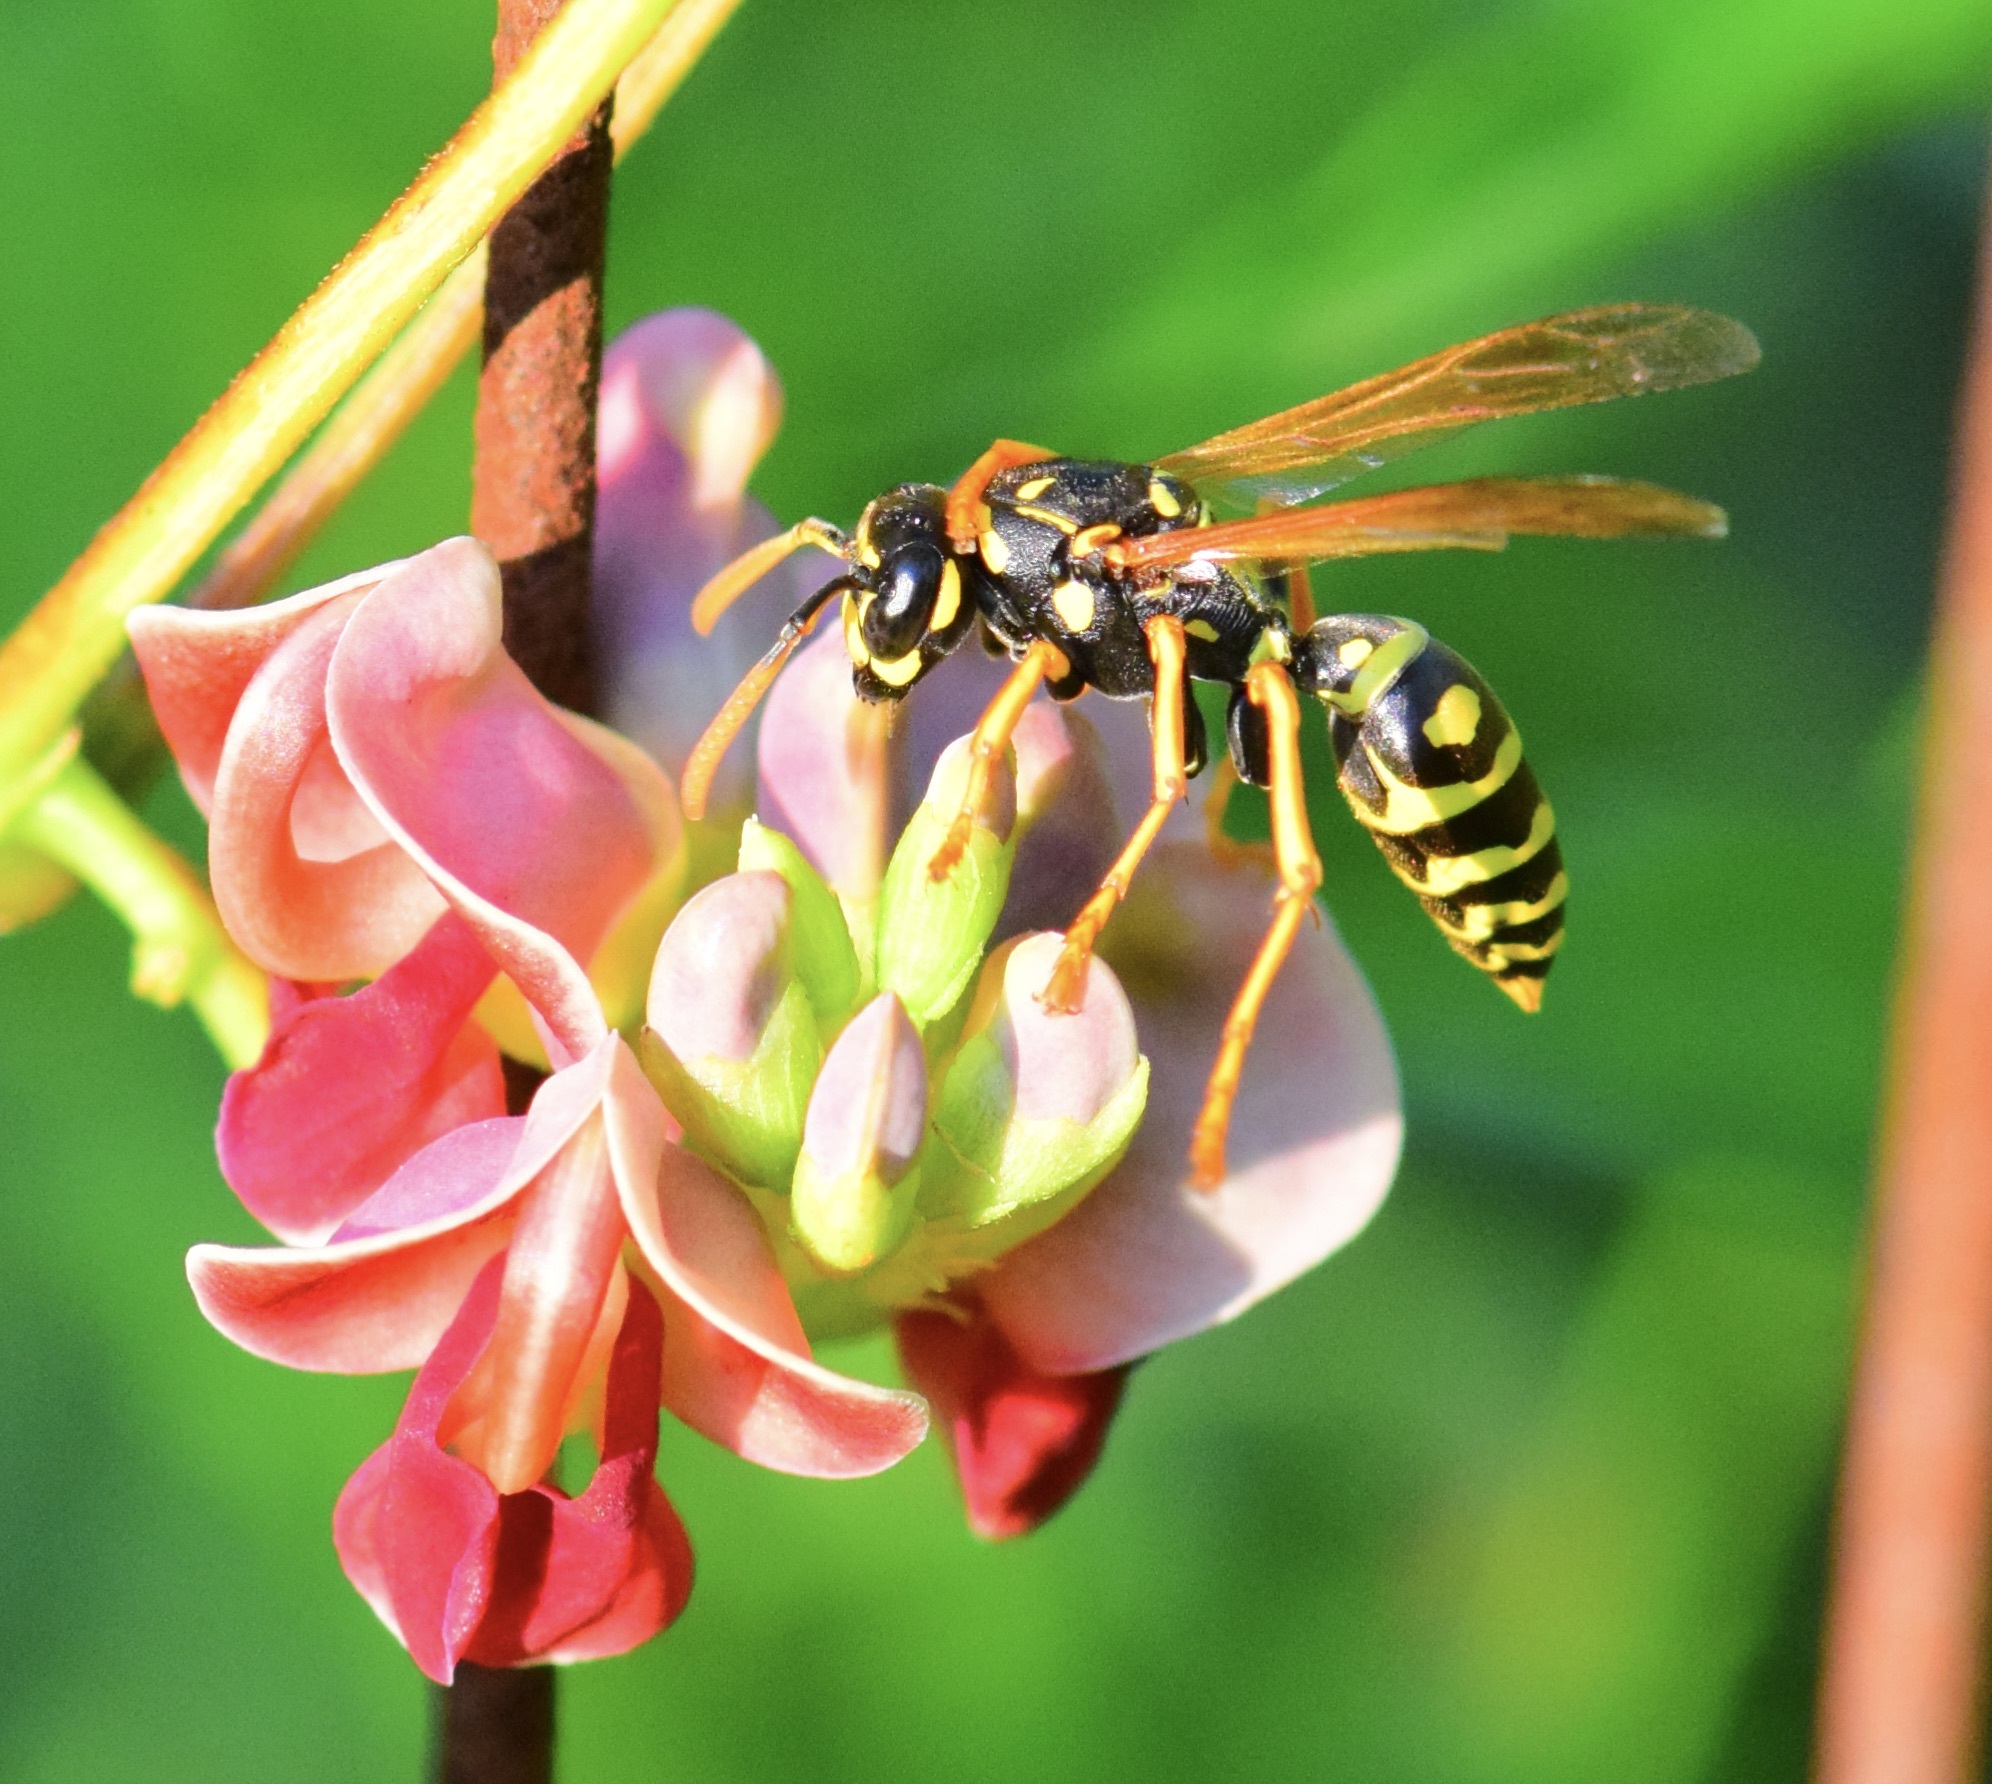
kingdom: Animalia
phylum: Arthropoda
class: Insecta
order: Hymenoptera
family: Eumenidae
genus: Polistes
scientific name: Polistes dominula
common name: Paper wasp
